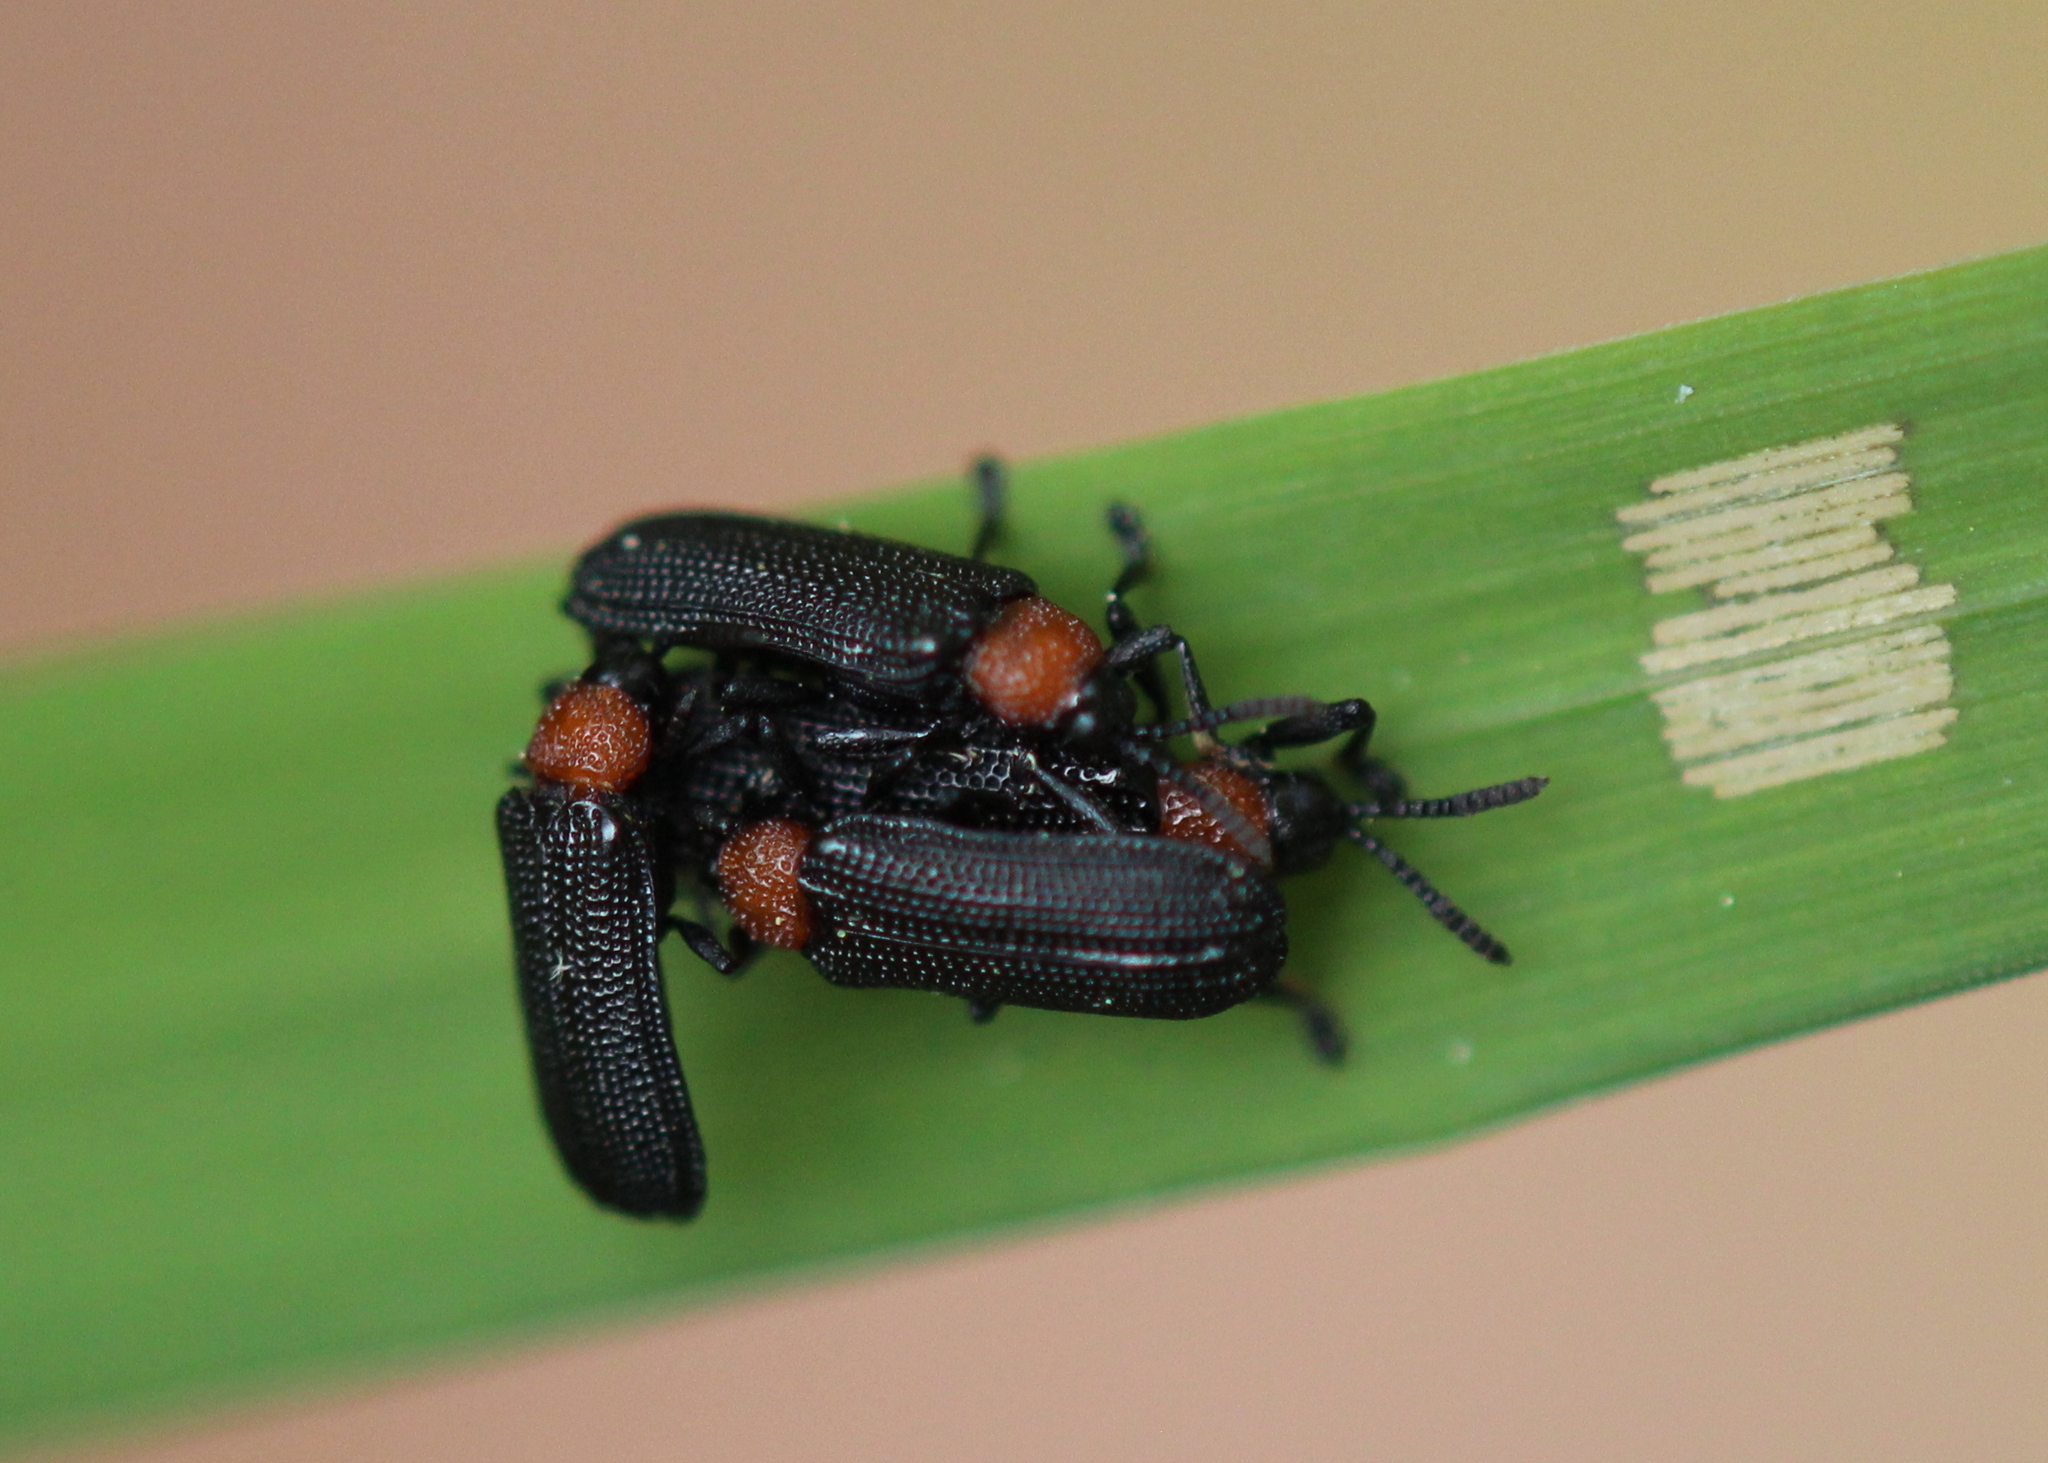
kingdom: Animalia
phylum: Arthropoda
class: Insecta
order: Coleoptera
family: Chrysomelidae
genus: Chalepus
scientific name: Chalepus walshii
